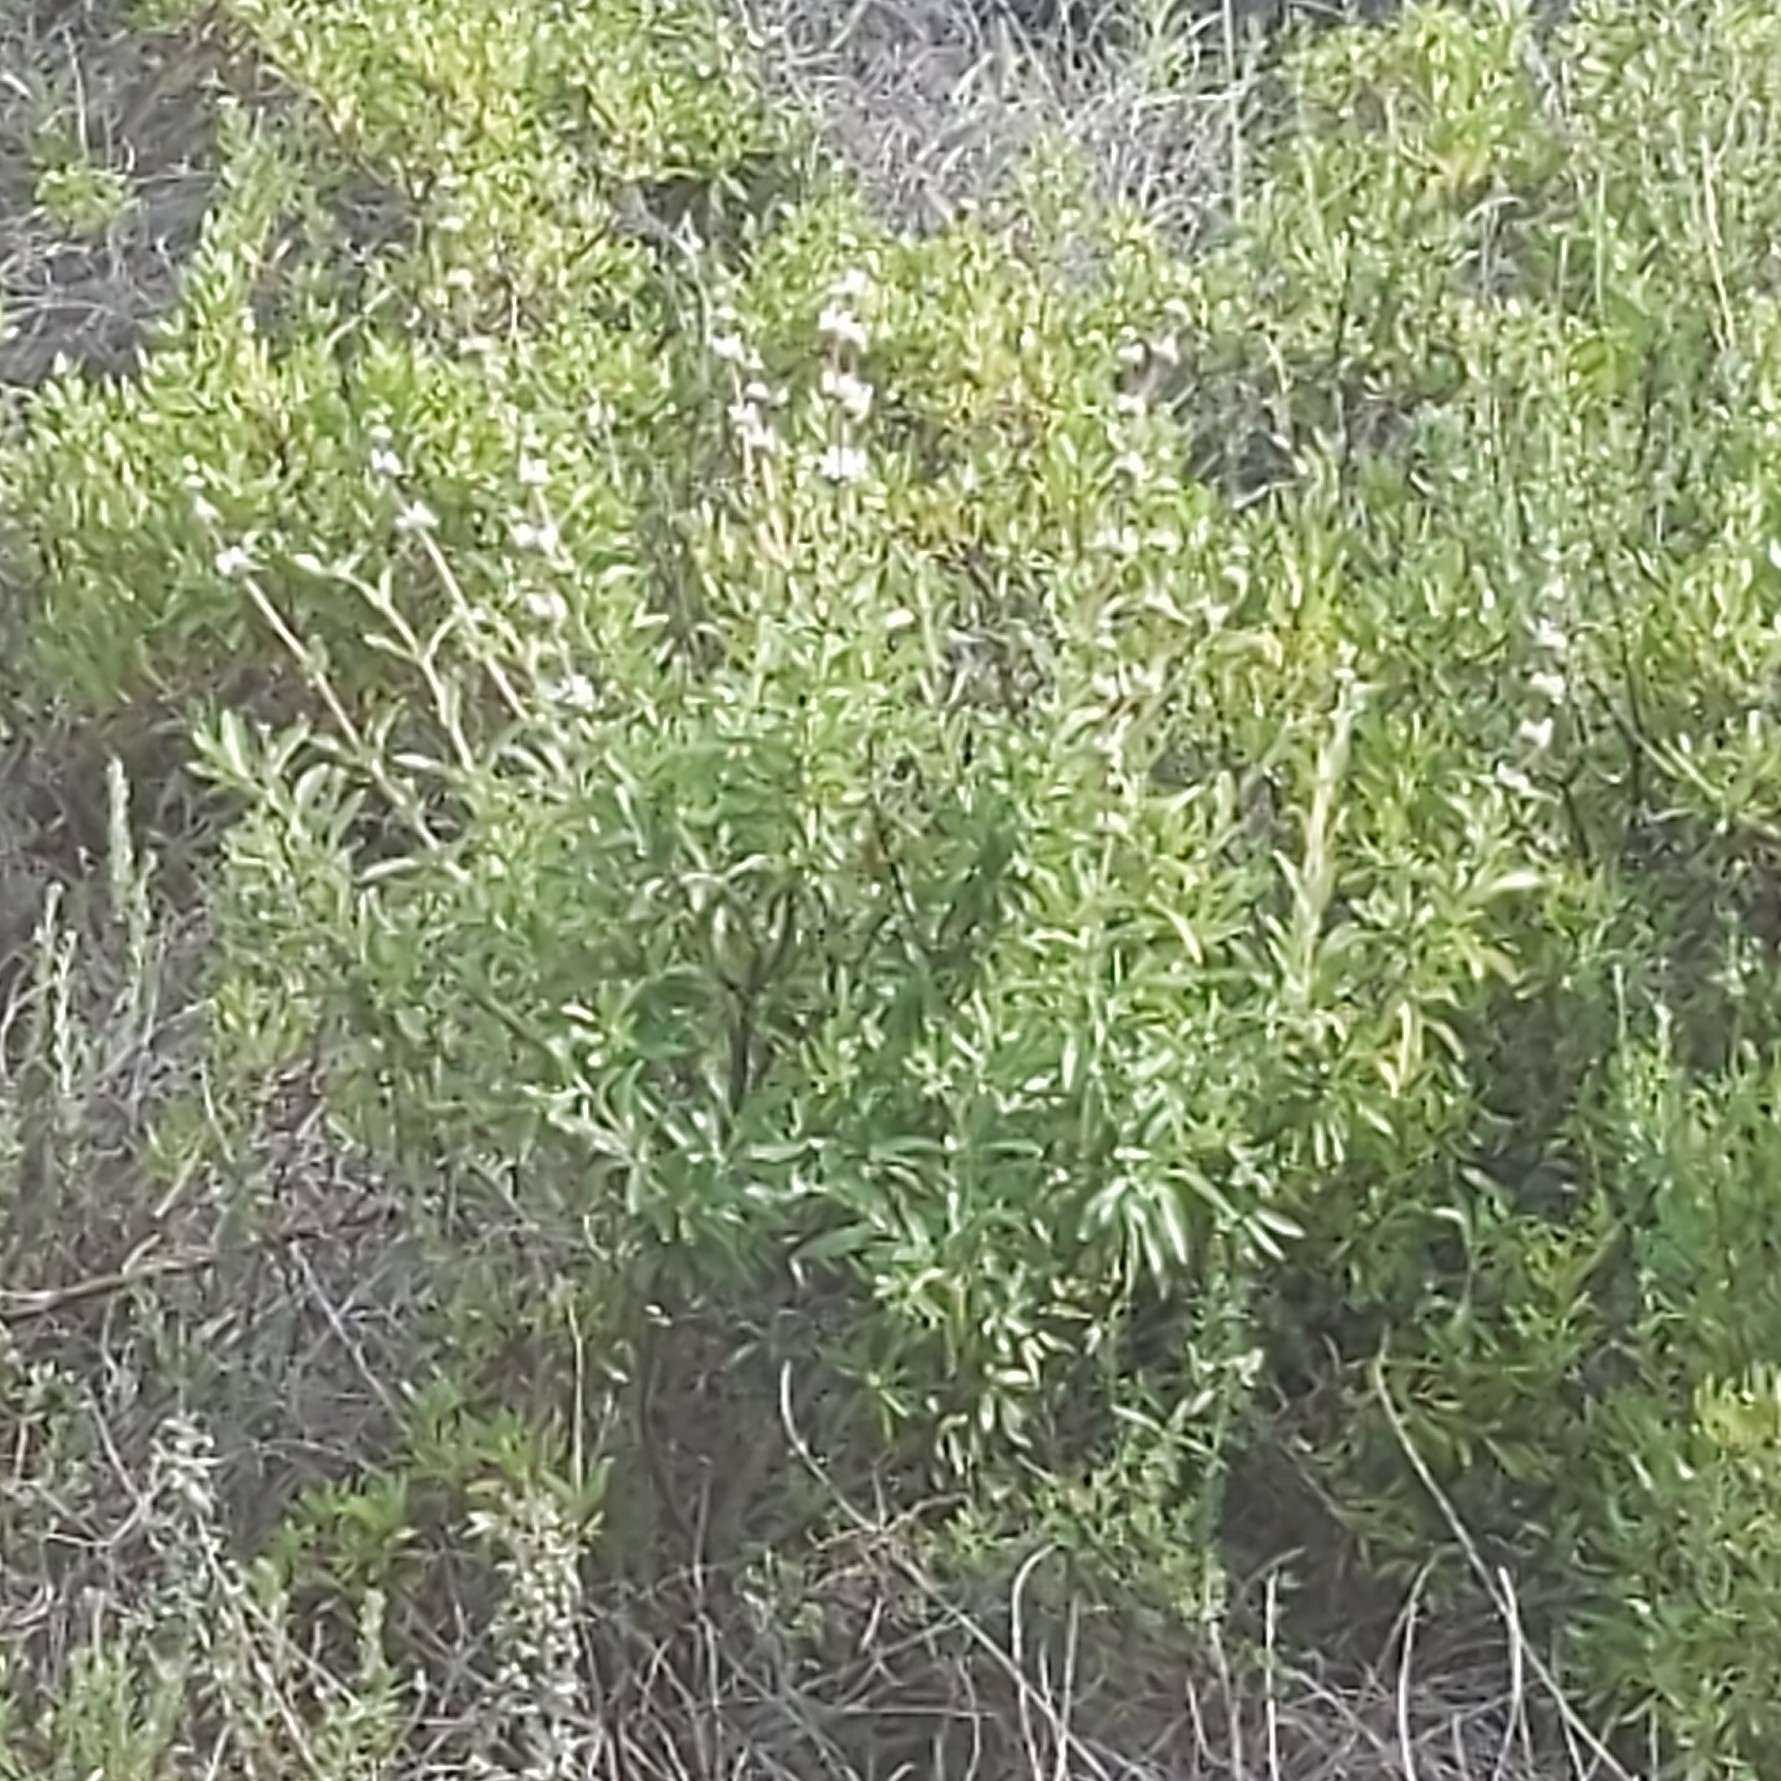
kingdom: Plantae
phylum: Tracheophyta
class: Magnoliopsida
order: Lamiales
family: Lamiaceae
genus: Salvia
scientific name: Salvia mellifera
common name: Black sage
